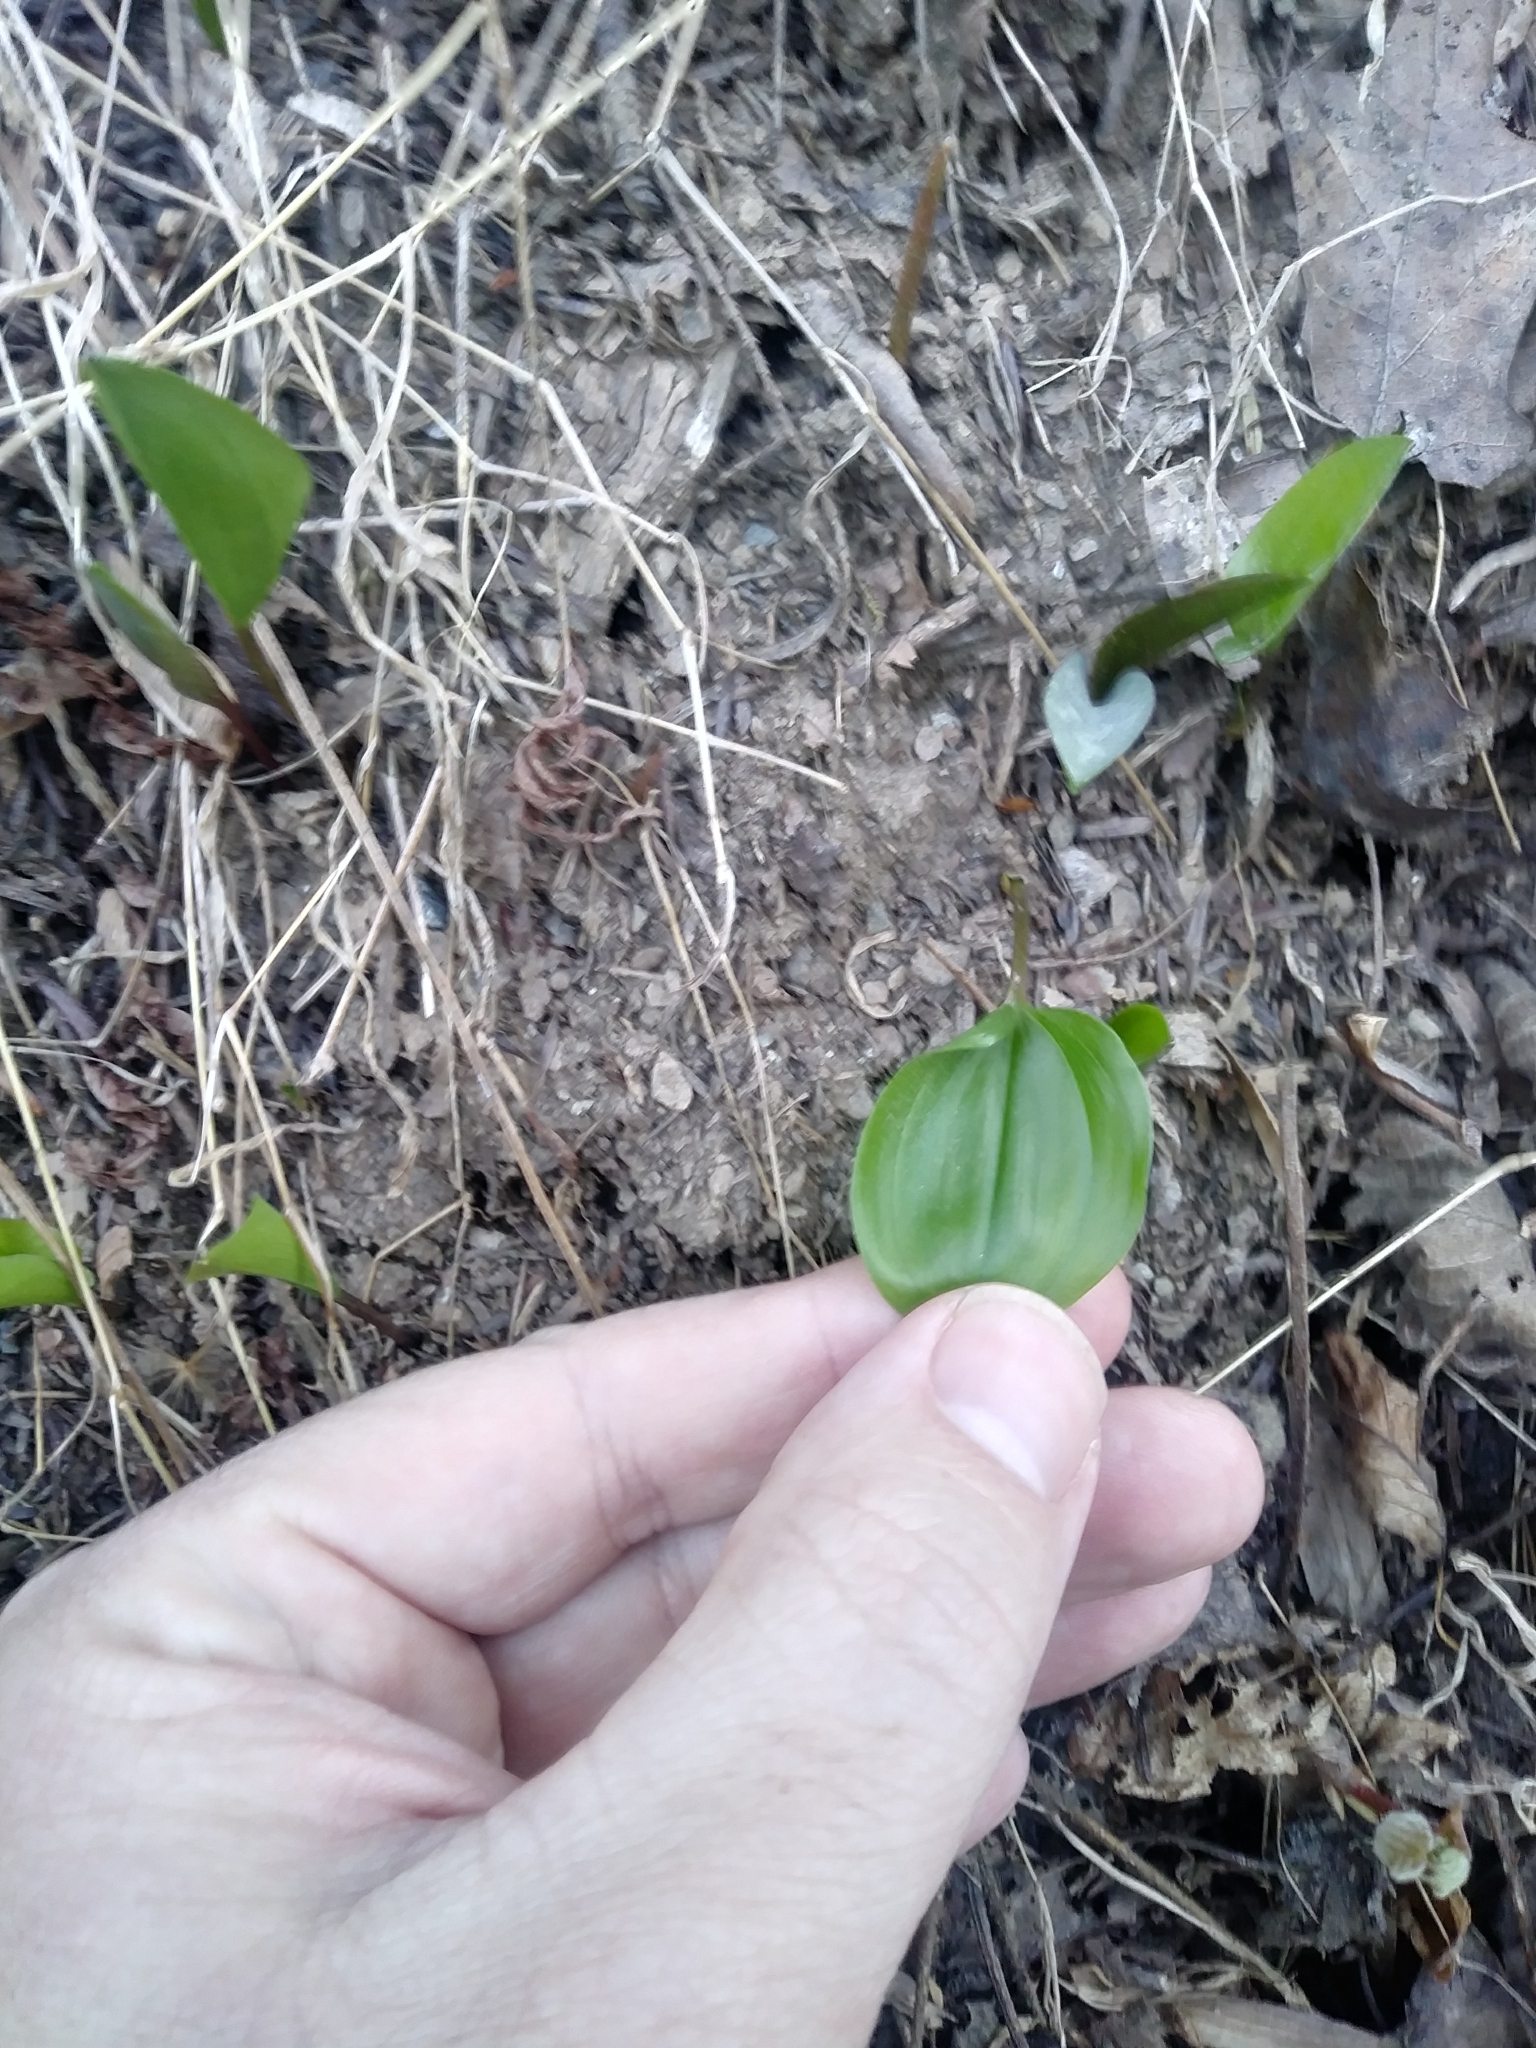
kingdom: Plantae
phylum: Tracheophyta
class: Liliopsida
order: Asparagales
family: Asparagaceae
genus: Maianthemum
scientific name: Maianthemum canadense
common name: False lily-of-the-valley
